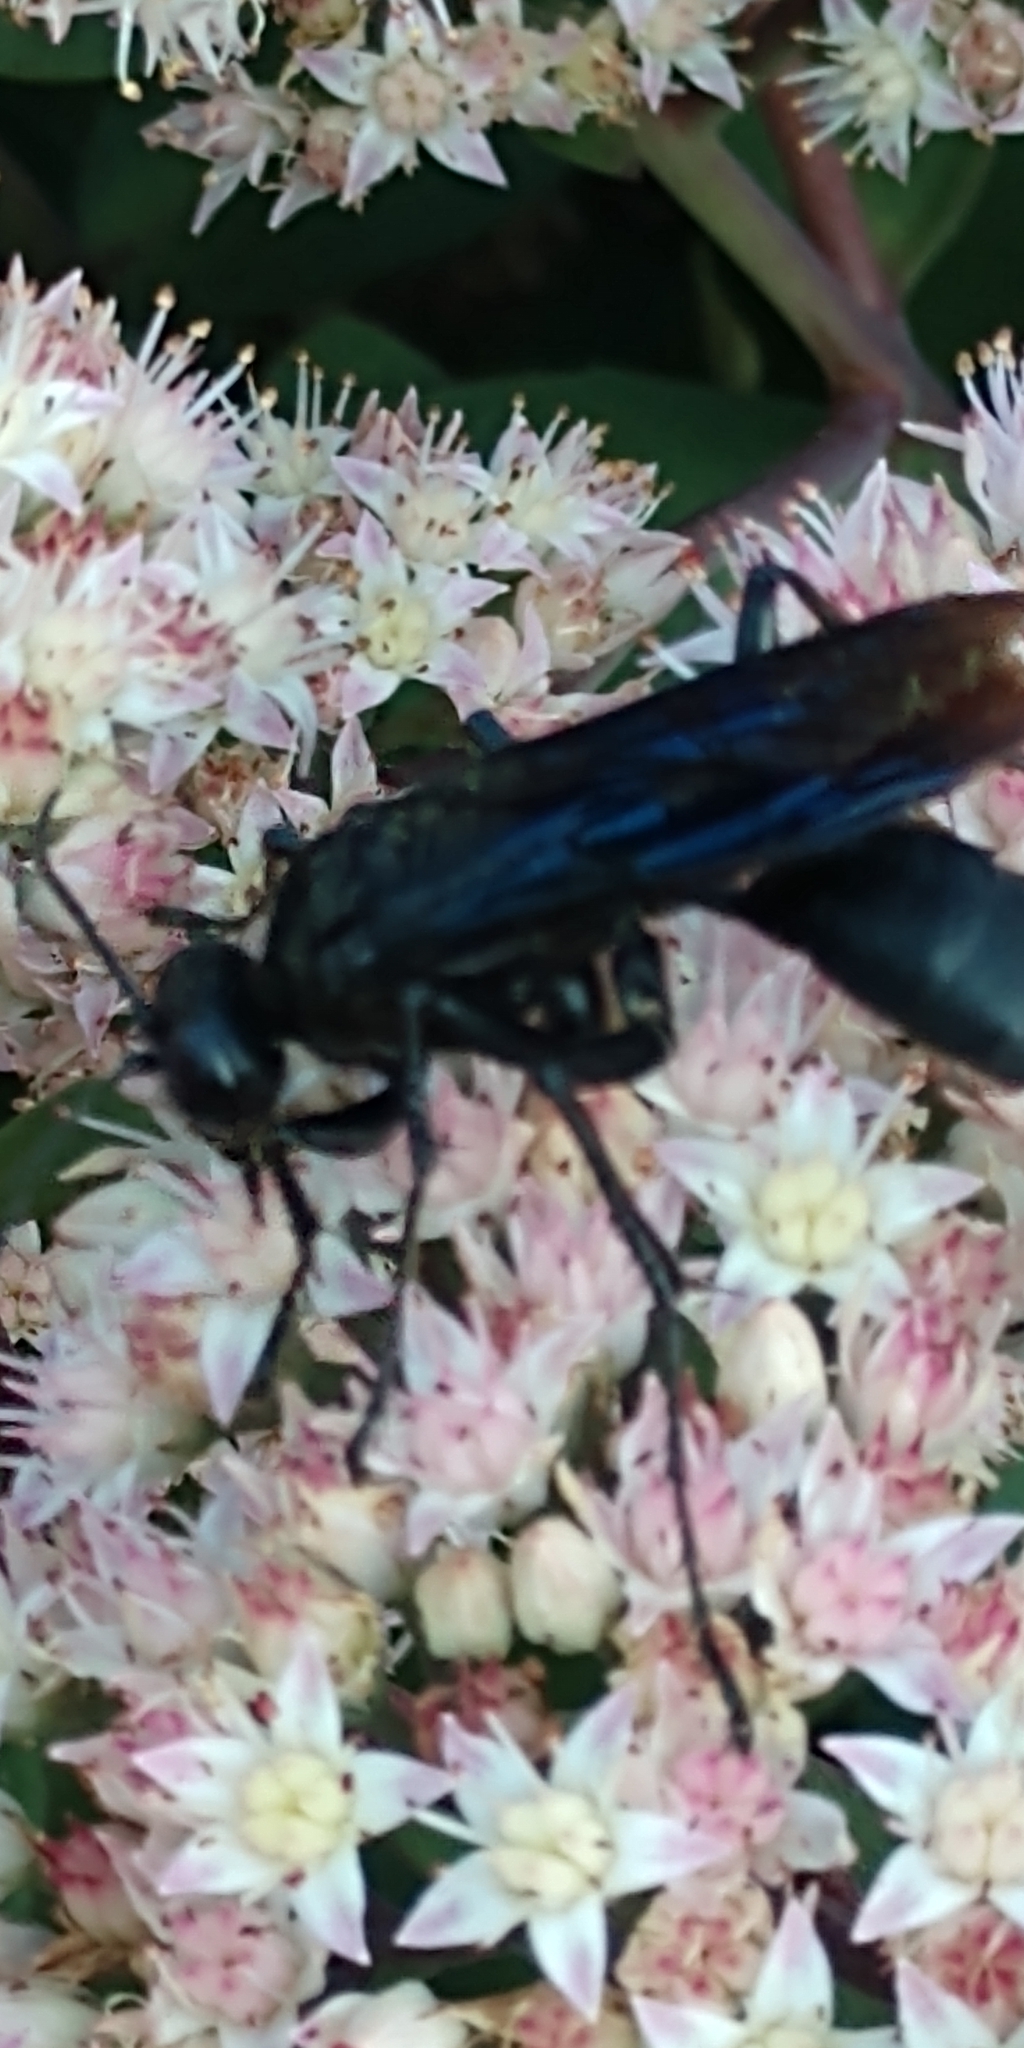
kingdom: Animalia
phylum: Arthropoda
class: Insecta
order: Hymenoptera
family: Sphecidae
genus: Sphex
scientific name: Sphex pensylvanicus
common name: Great black digger wasp
